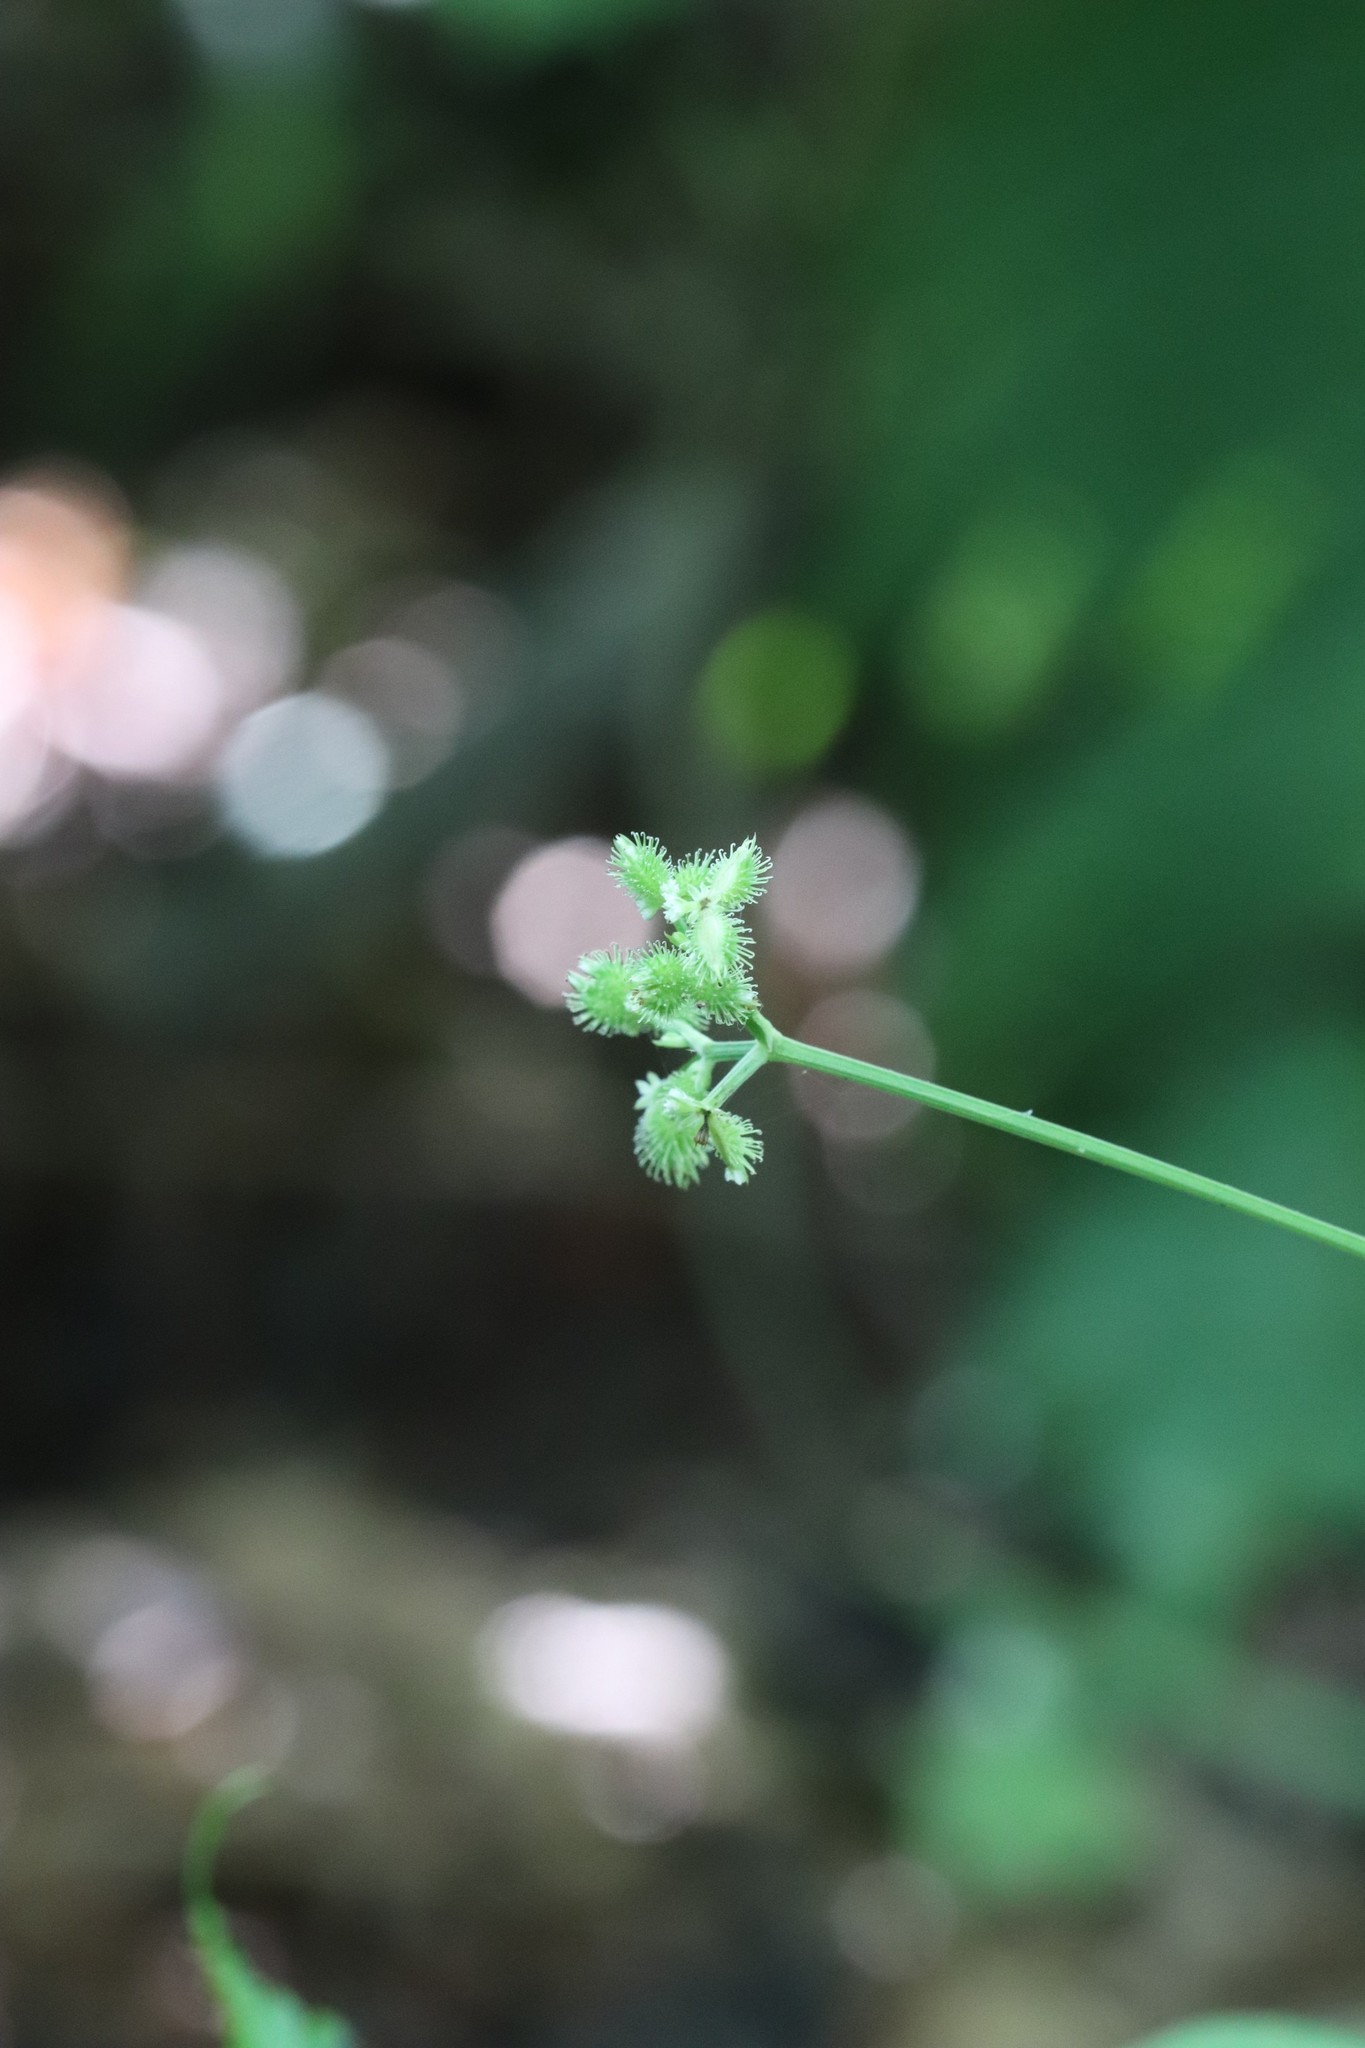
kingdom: Plantae
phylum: Tracheophyta
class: Magnoliopsida
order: Apiales
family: Apiaceae
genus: Sanicula
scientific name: Sanicula chinensis
